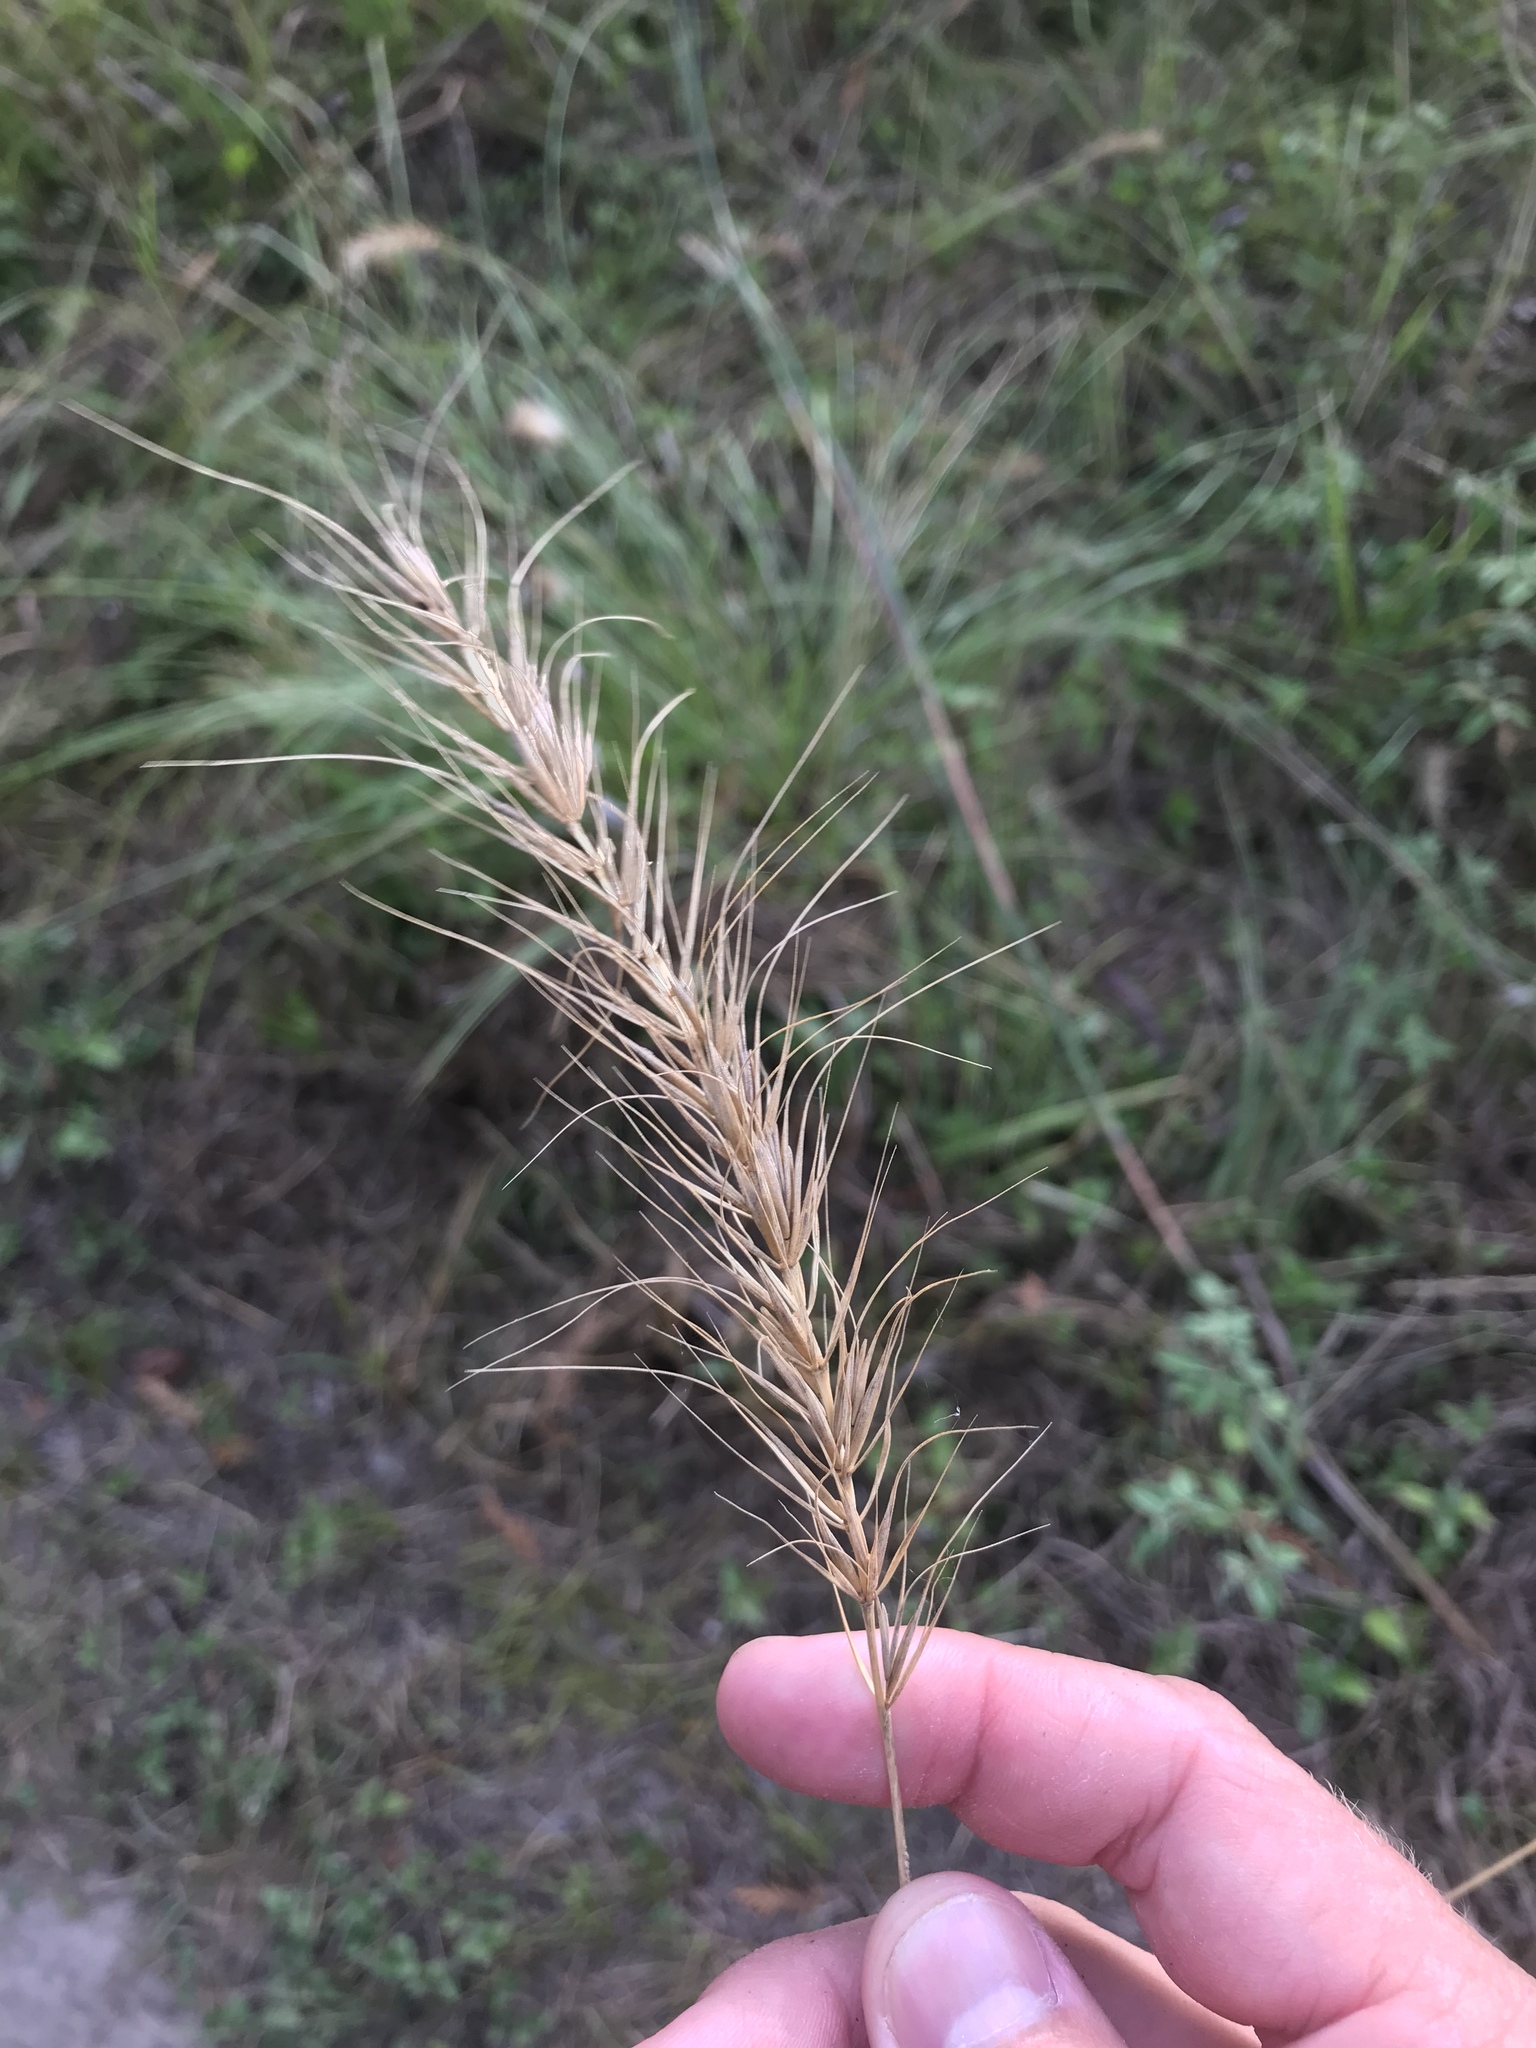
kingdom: Plantae
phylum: Tracheophyta
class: Liliopsida
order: Poales
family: Poaceae
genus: Elymus
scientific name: Elymus canadensis
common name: Canada wild rye
